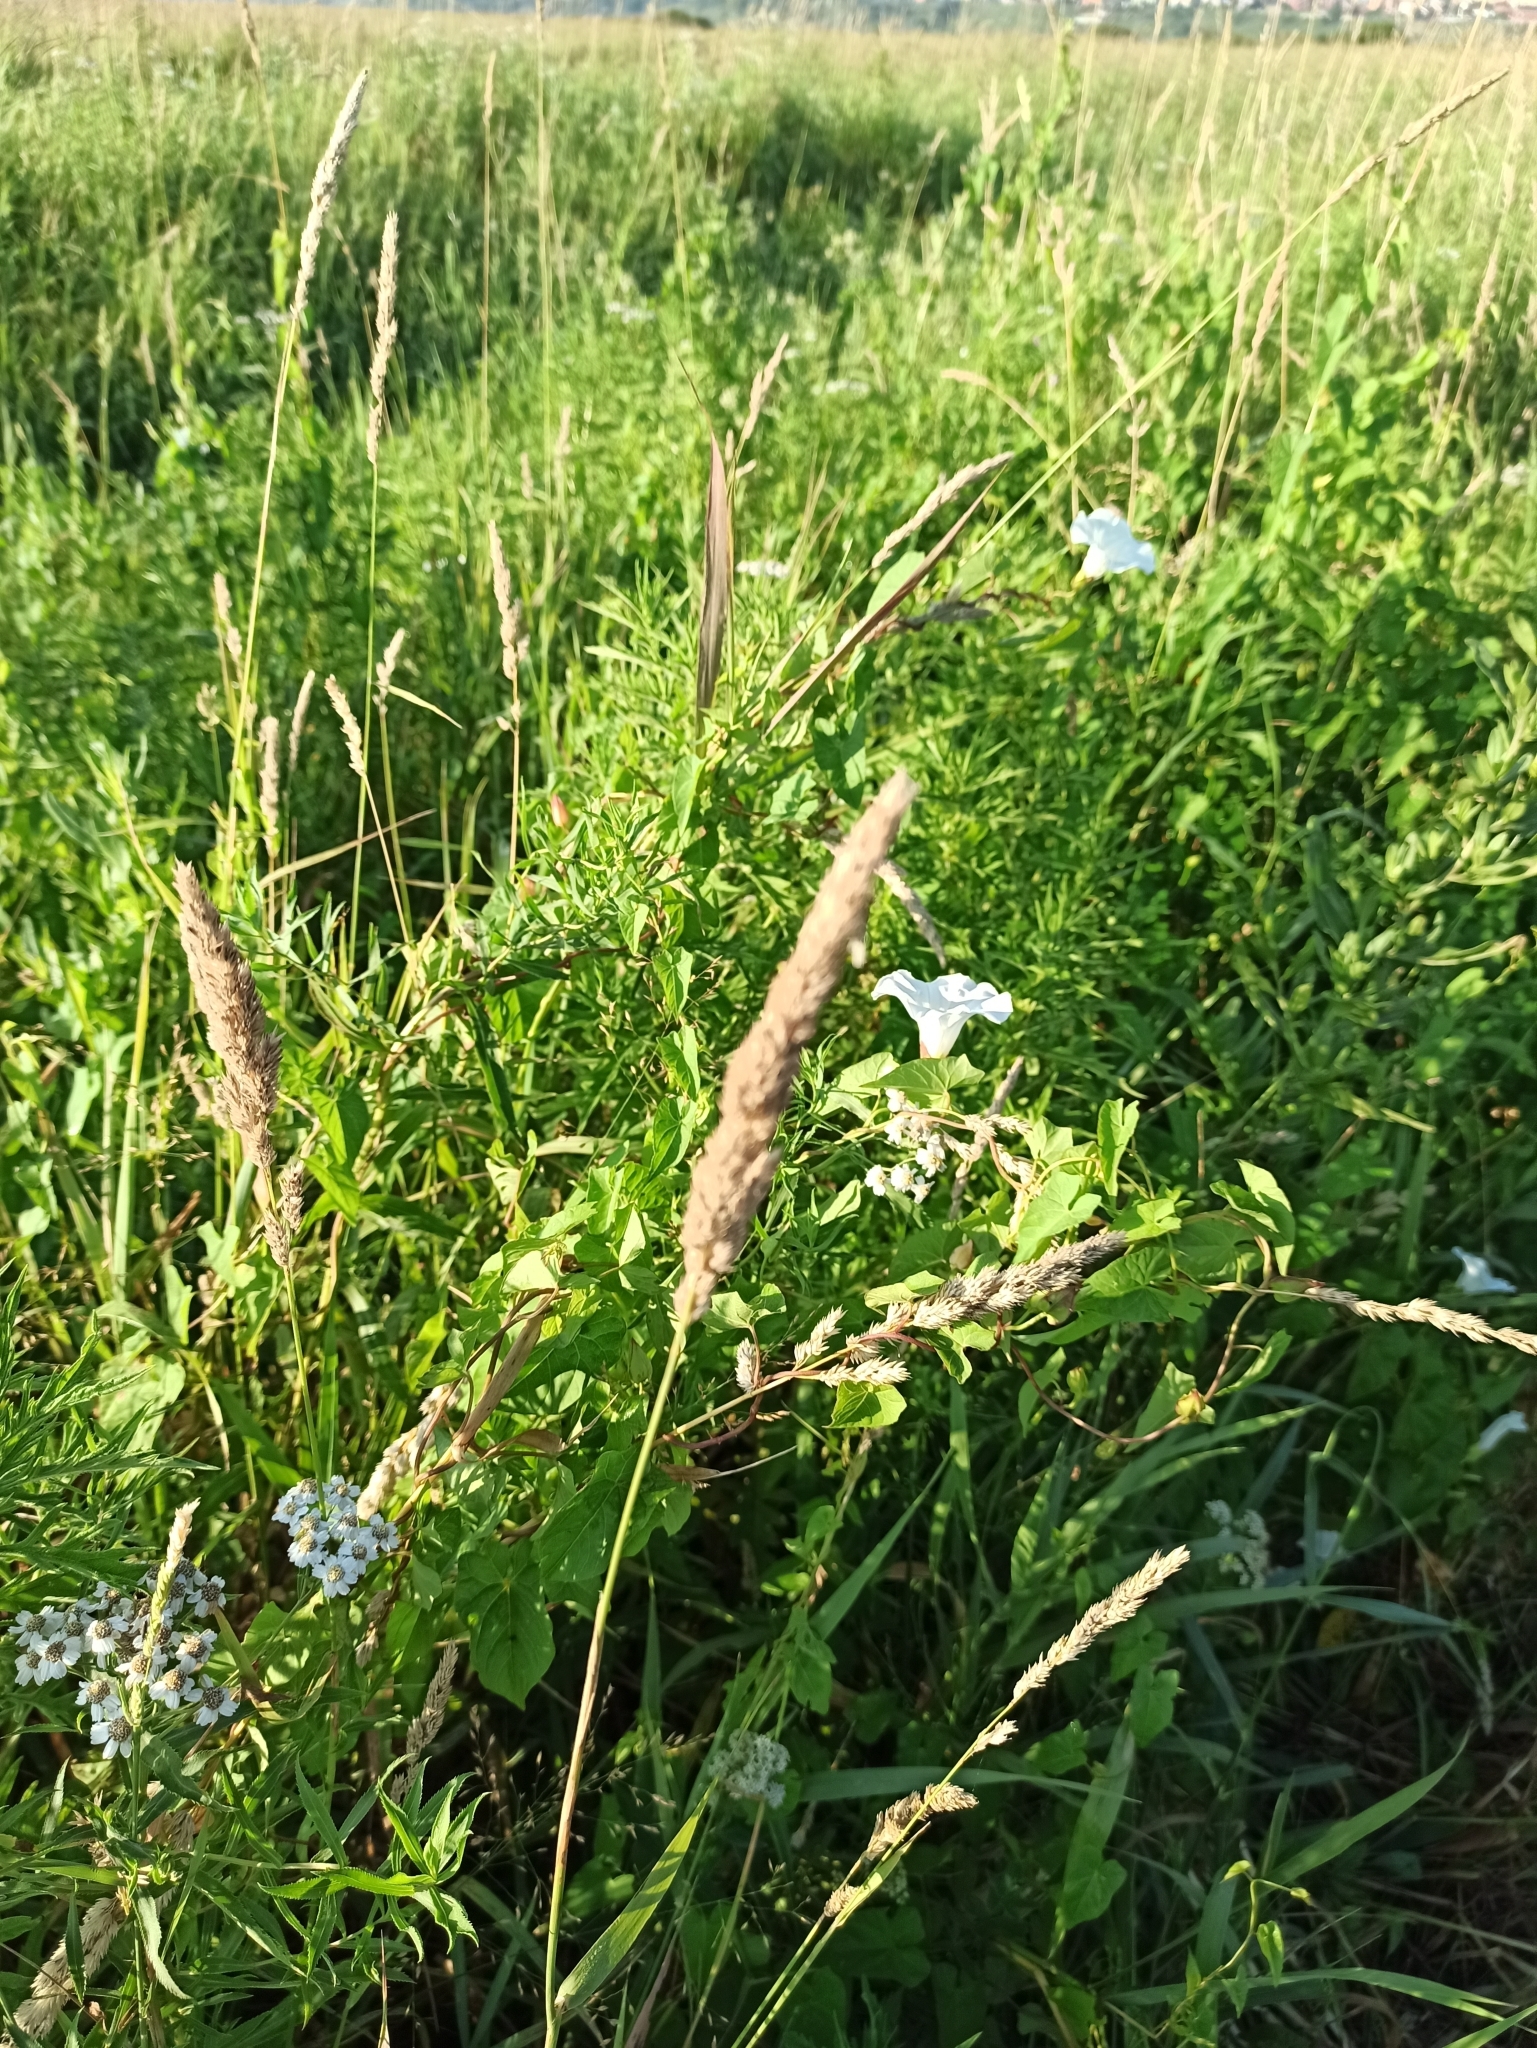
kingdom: Plantae
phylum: Tracheophyta
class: Liliopsida
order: Poales
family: Poaceae
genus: Phalaris
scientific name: Phalaris arundinacea
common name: Reed canary-grass
